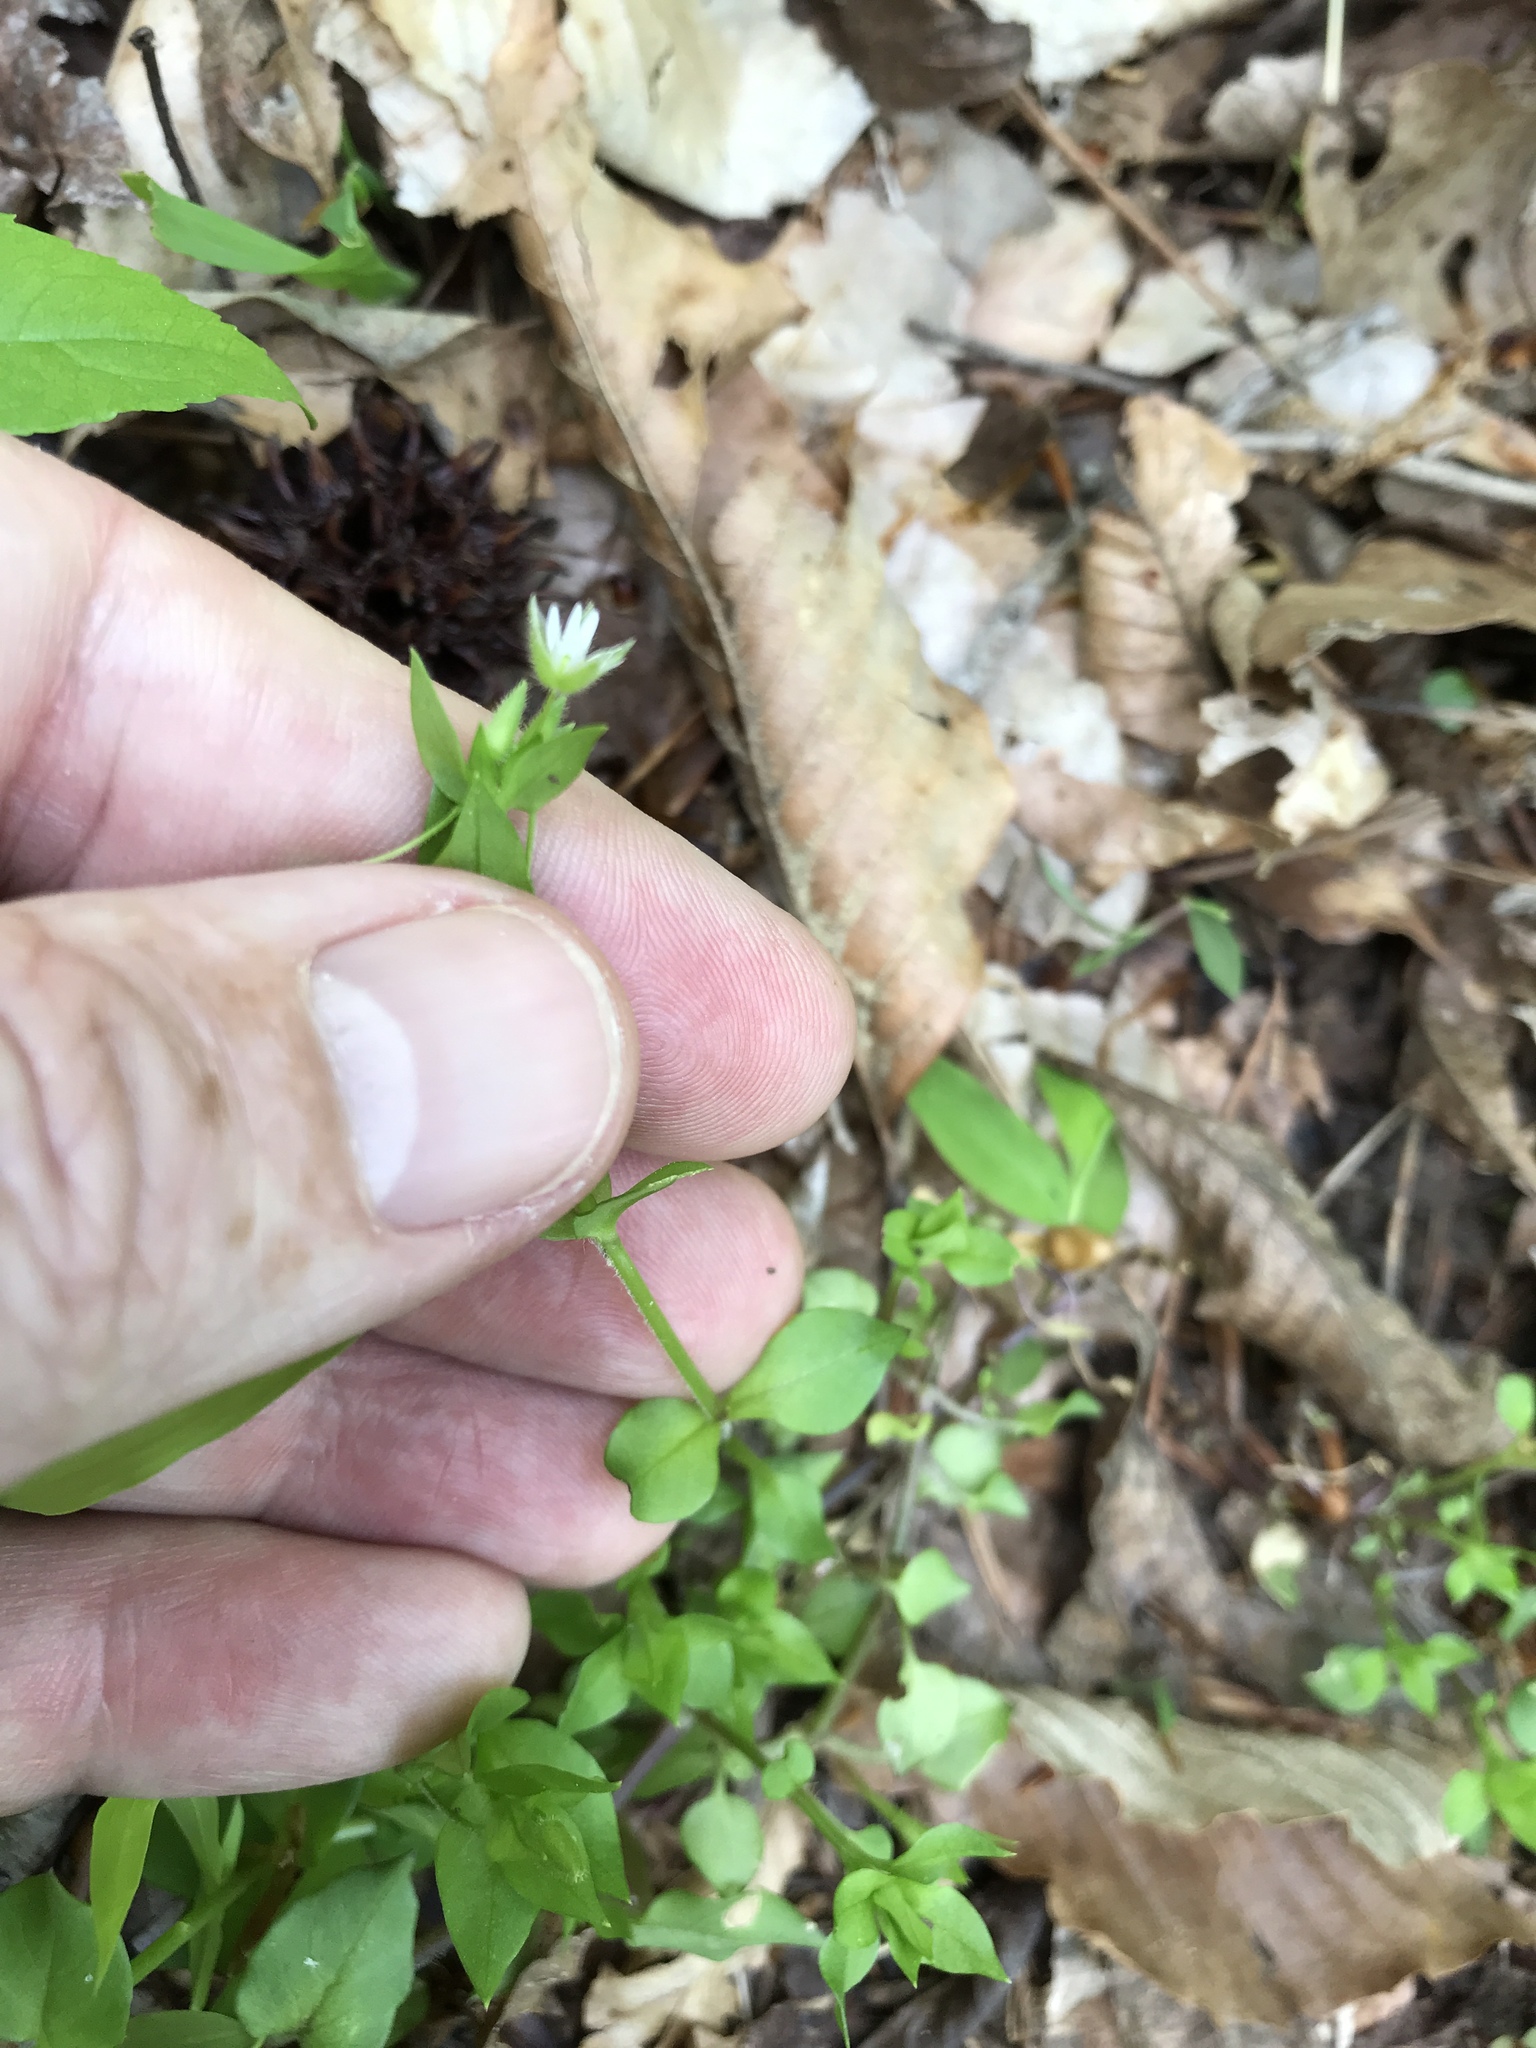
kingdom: Plantae
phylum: Tracheophyta
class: Magnoliopsida
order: Caryophyllales
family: Caryophyllaceae
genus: Stellaria
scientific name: Stellaria media
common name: Common chickweed
